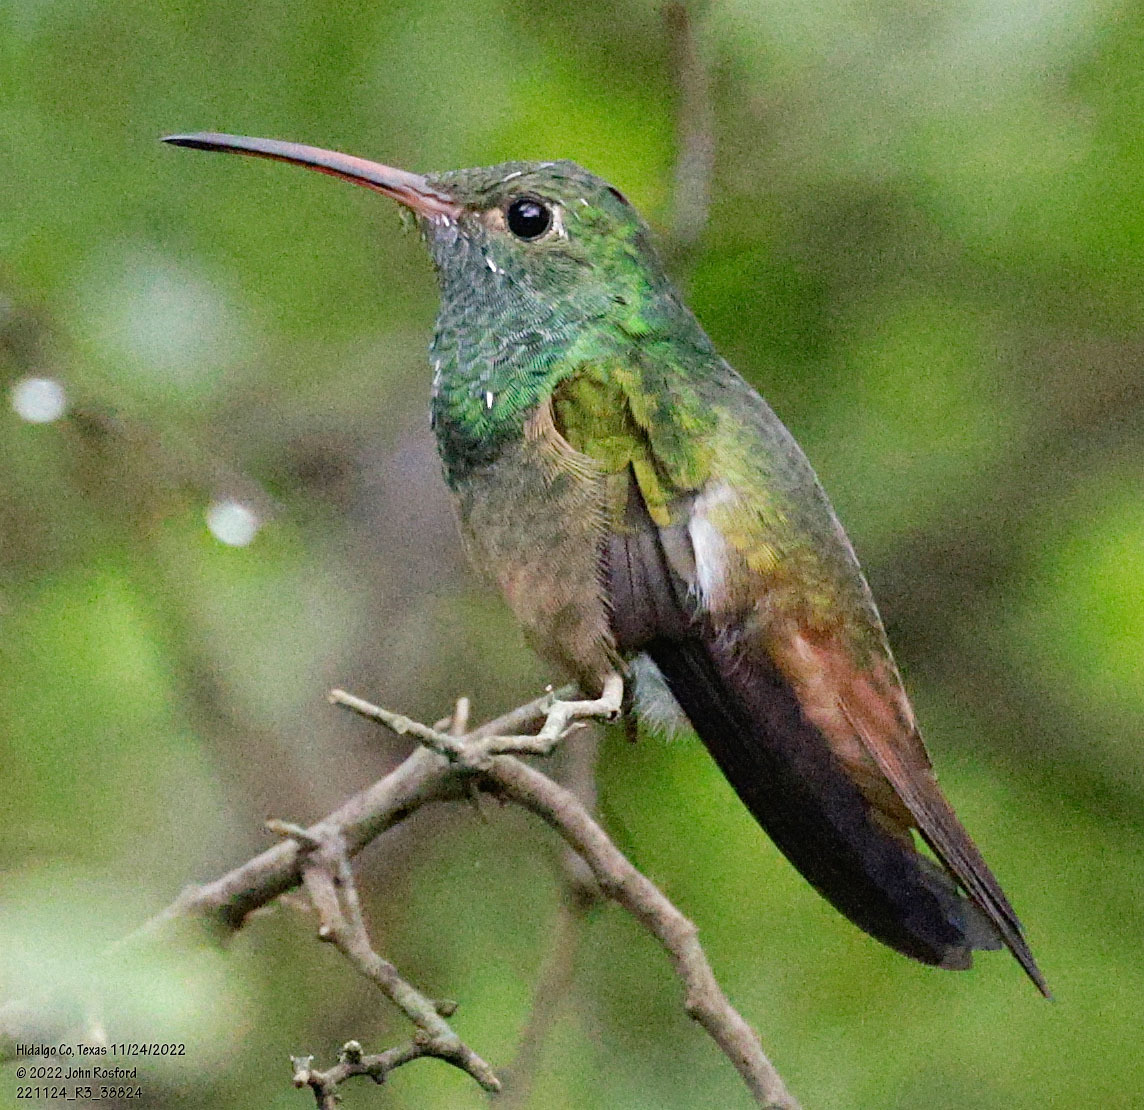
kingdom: Animalia
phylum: Chordata
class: Aves
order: Apodiformes
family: Trochilidae
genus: Amazilia
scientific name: Amazilia yucatanensis
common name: Buff-bellied hummingbird
